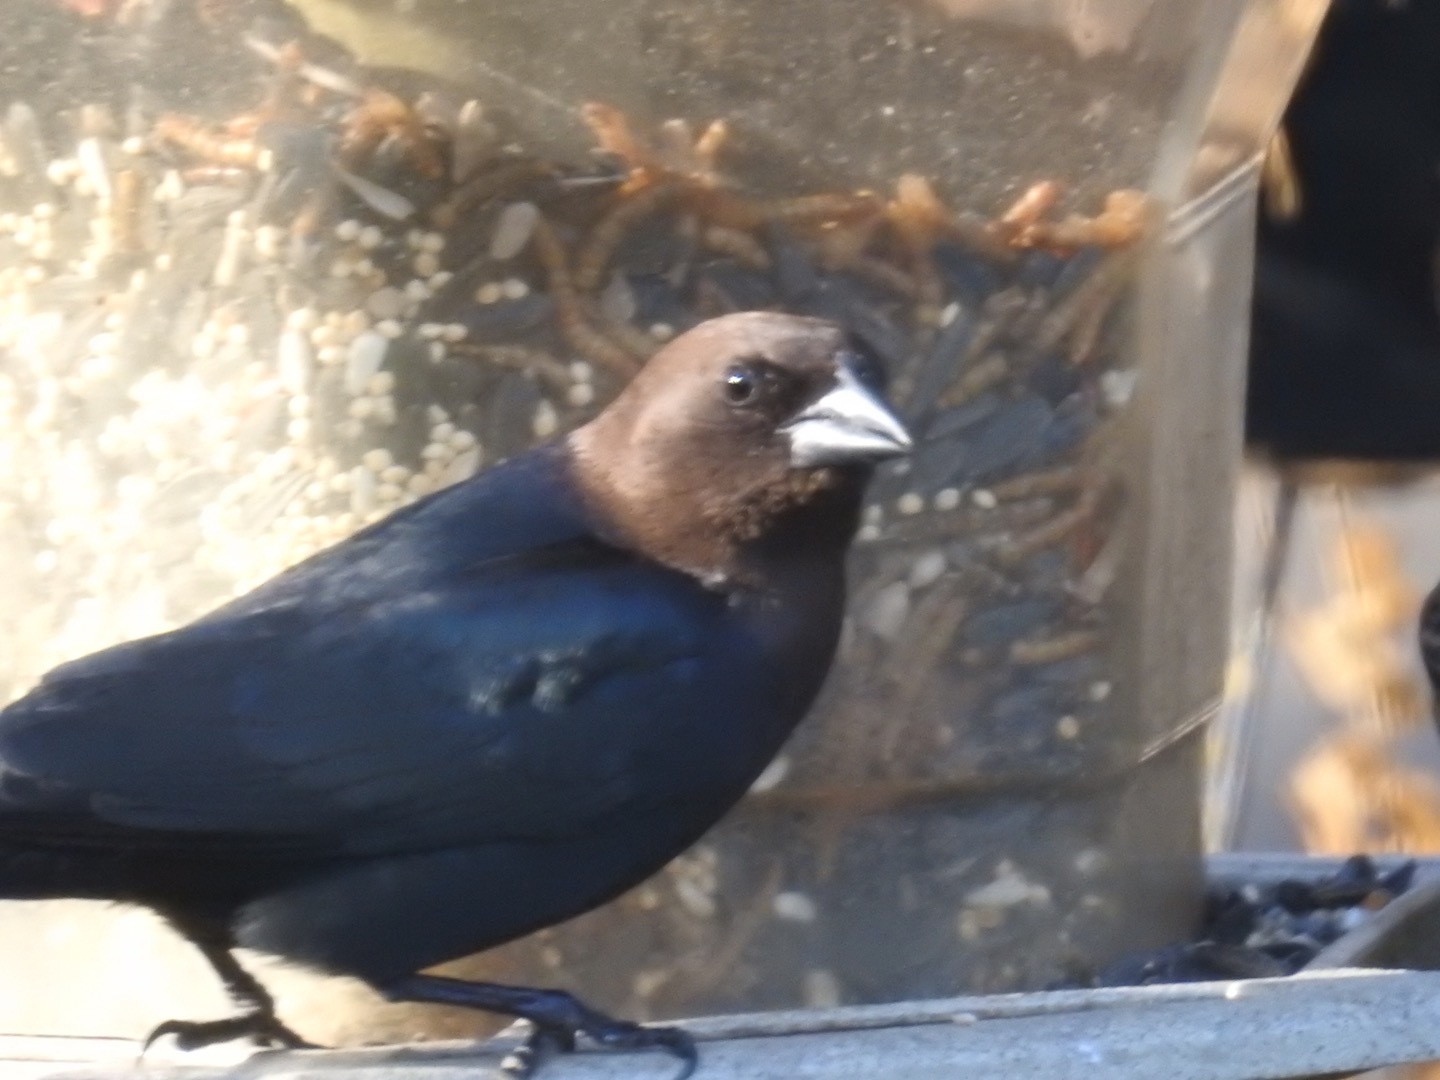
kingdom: Animalia
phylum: Chordata
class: Aves
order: Passeriformes
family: Icteridae
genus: Molothrus
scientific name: Molothrus ater
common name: Brown-headed cowbird
